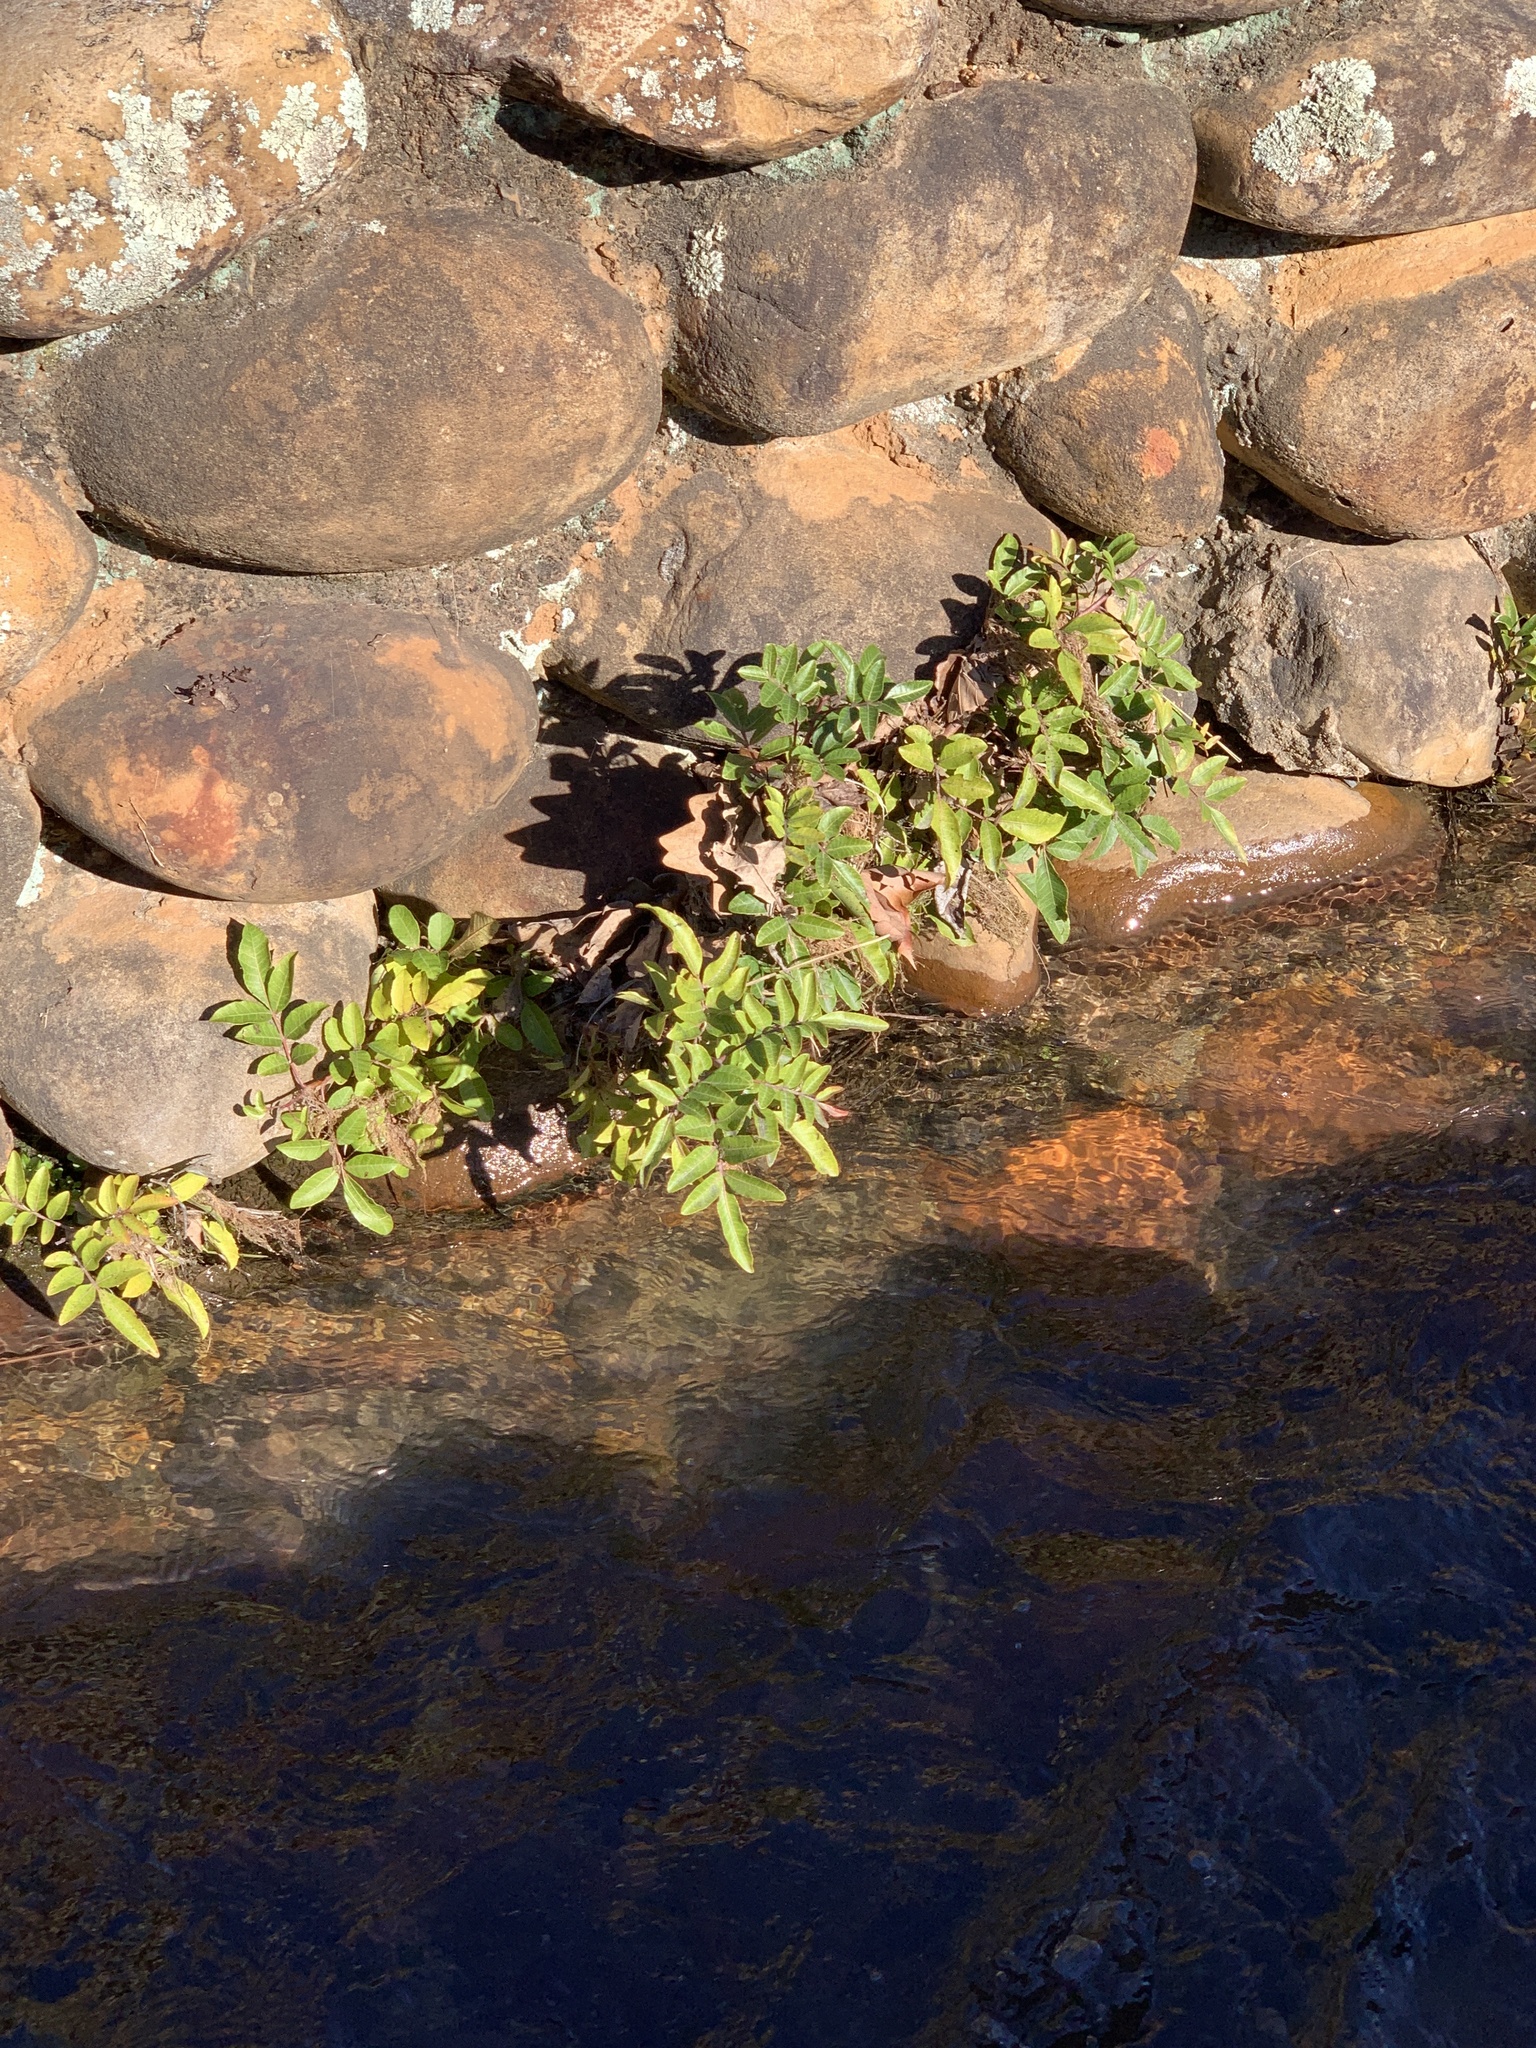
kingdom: Plantae
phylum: Tracheophyta
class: Magnoliopsida
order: Sapindales
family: Anacardiaceae
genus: Schinus
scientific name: Schinus terebinthifolia
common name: Brazilian peppertree
